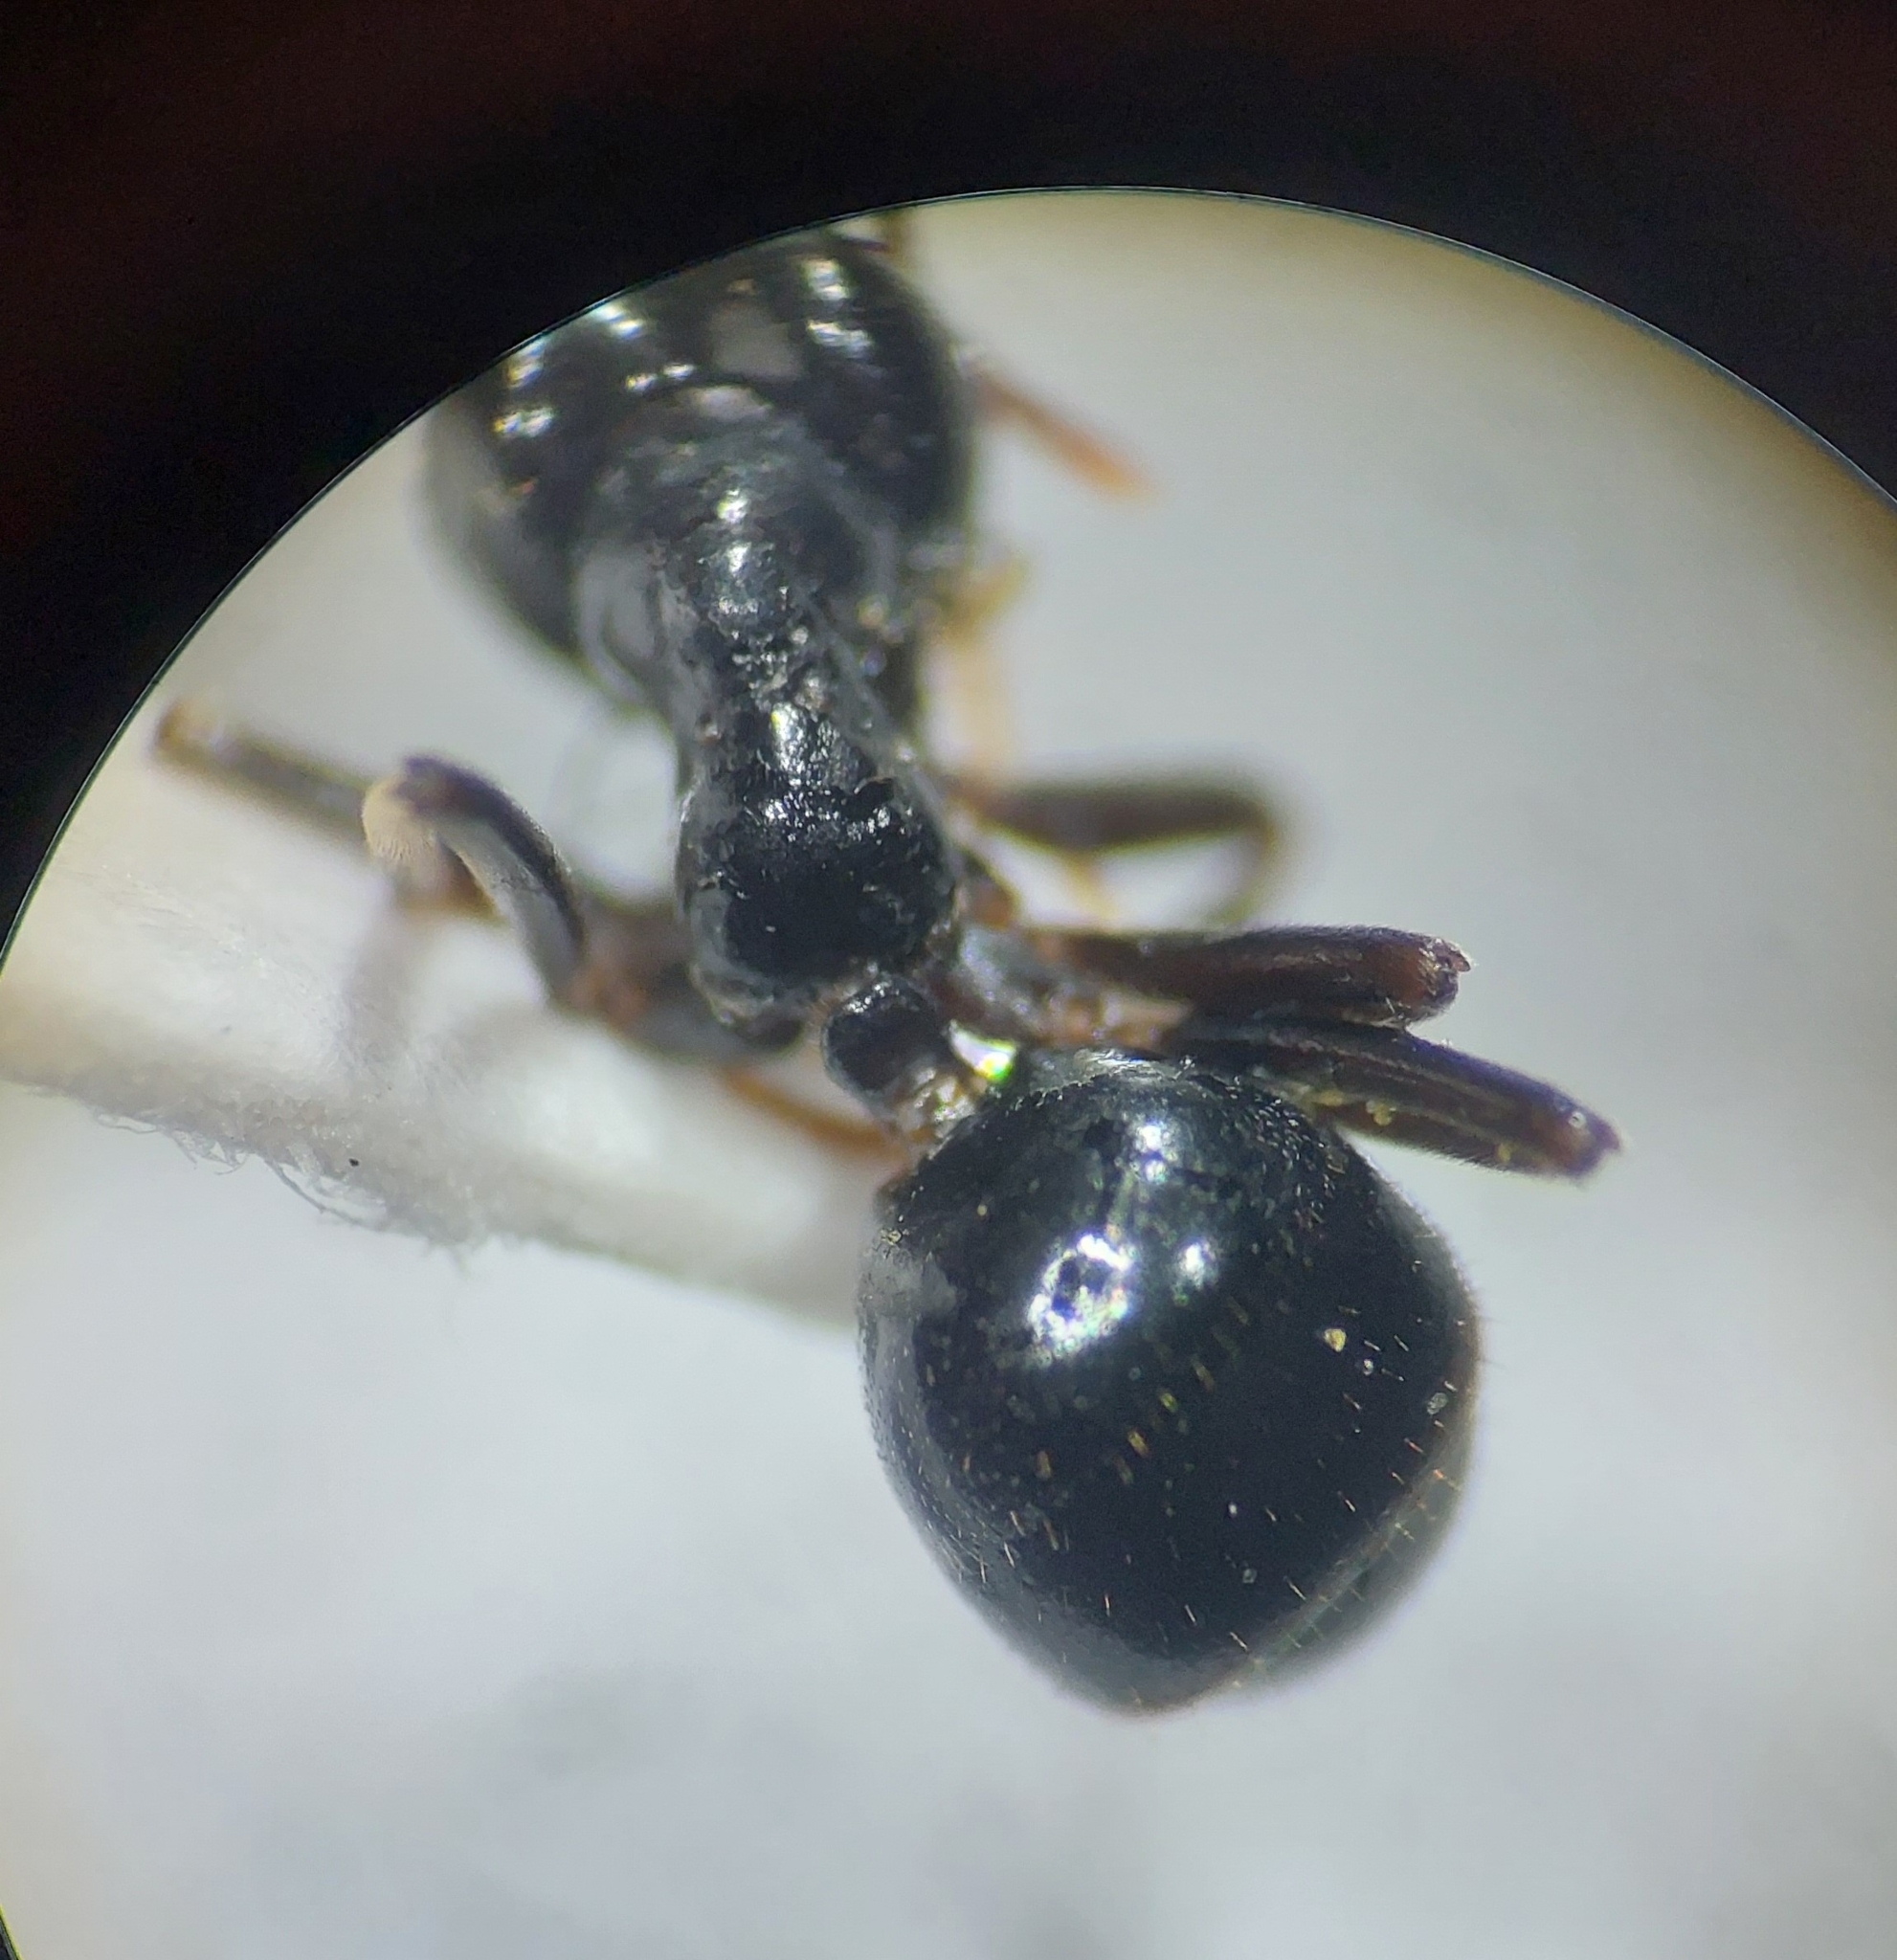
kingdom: Animalia
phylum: Arthropoda
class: Insecta
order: Hymenoptera
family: Formicidae
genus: Lasius
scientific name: Lasius fuliginosus
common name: Jet ant
